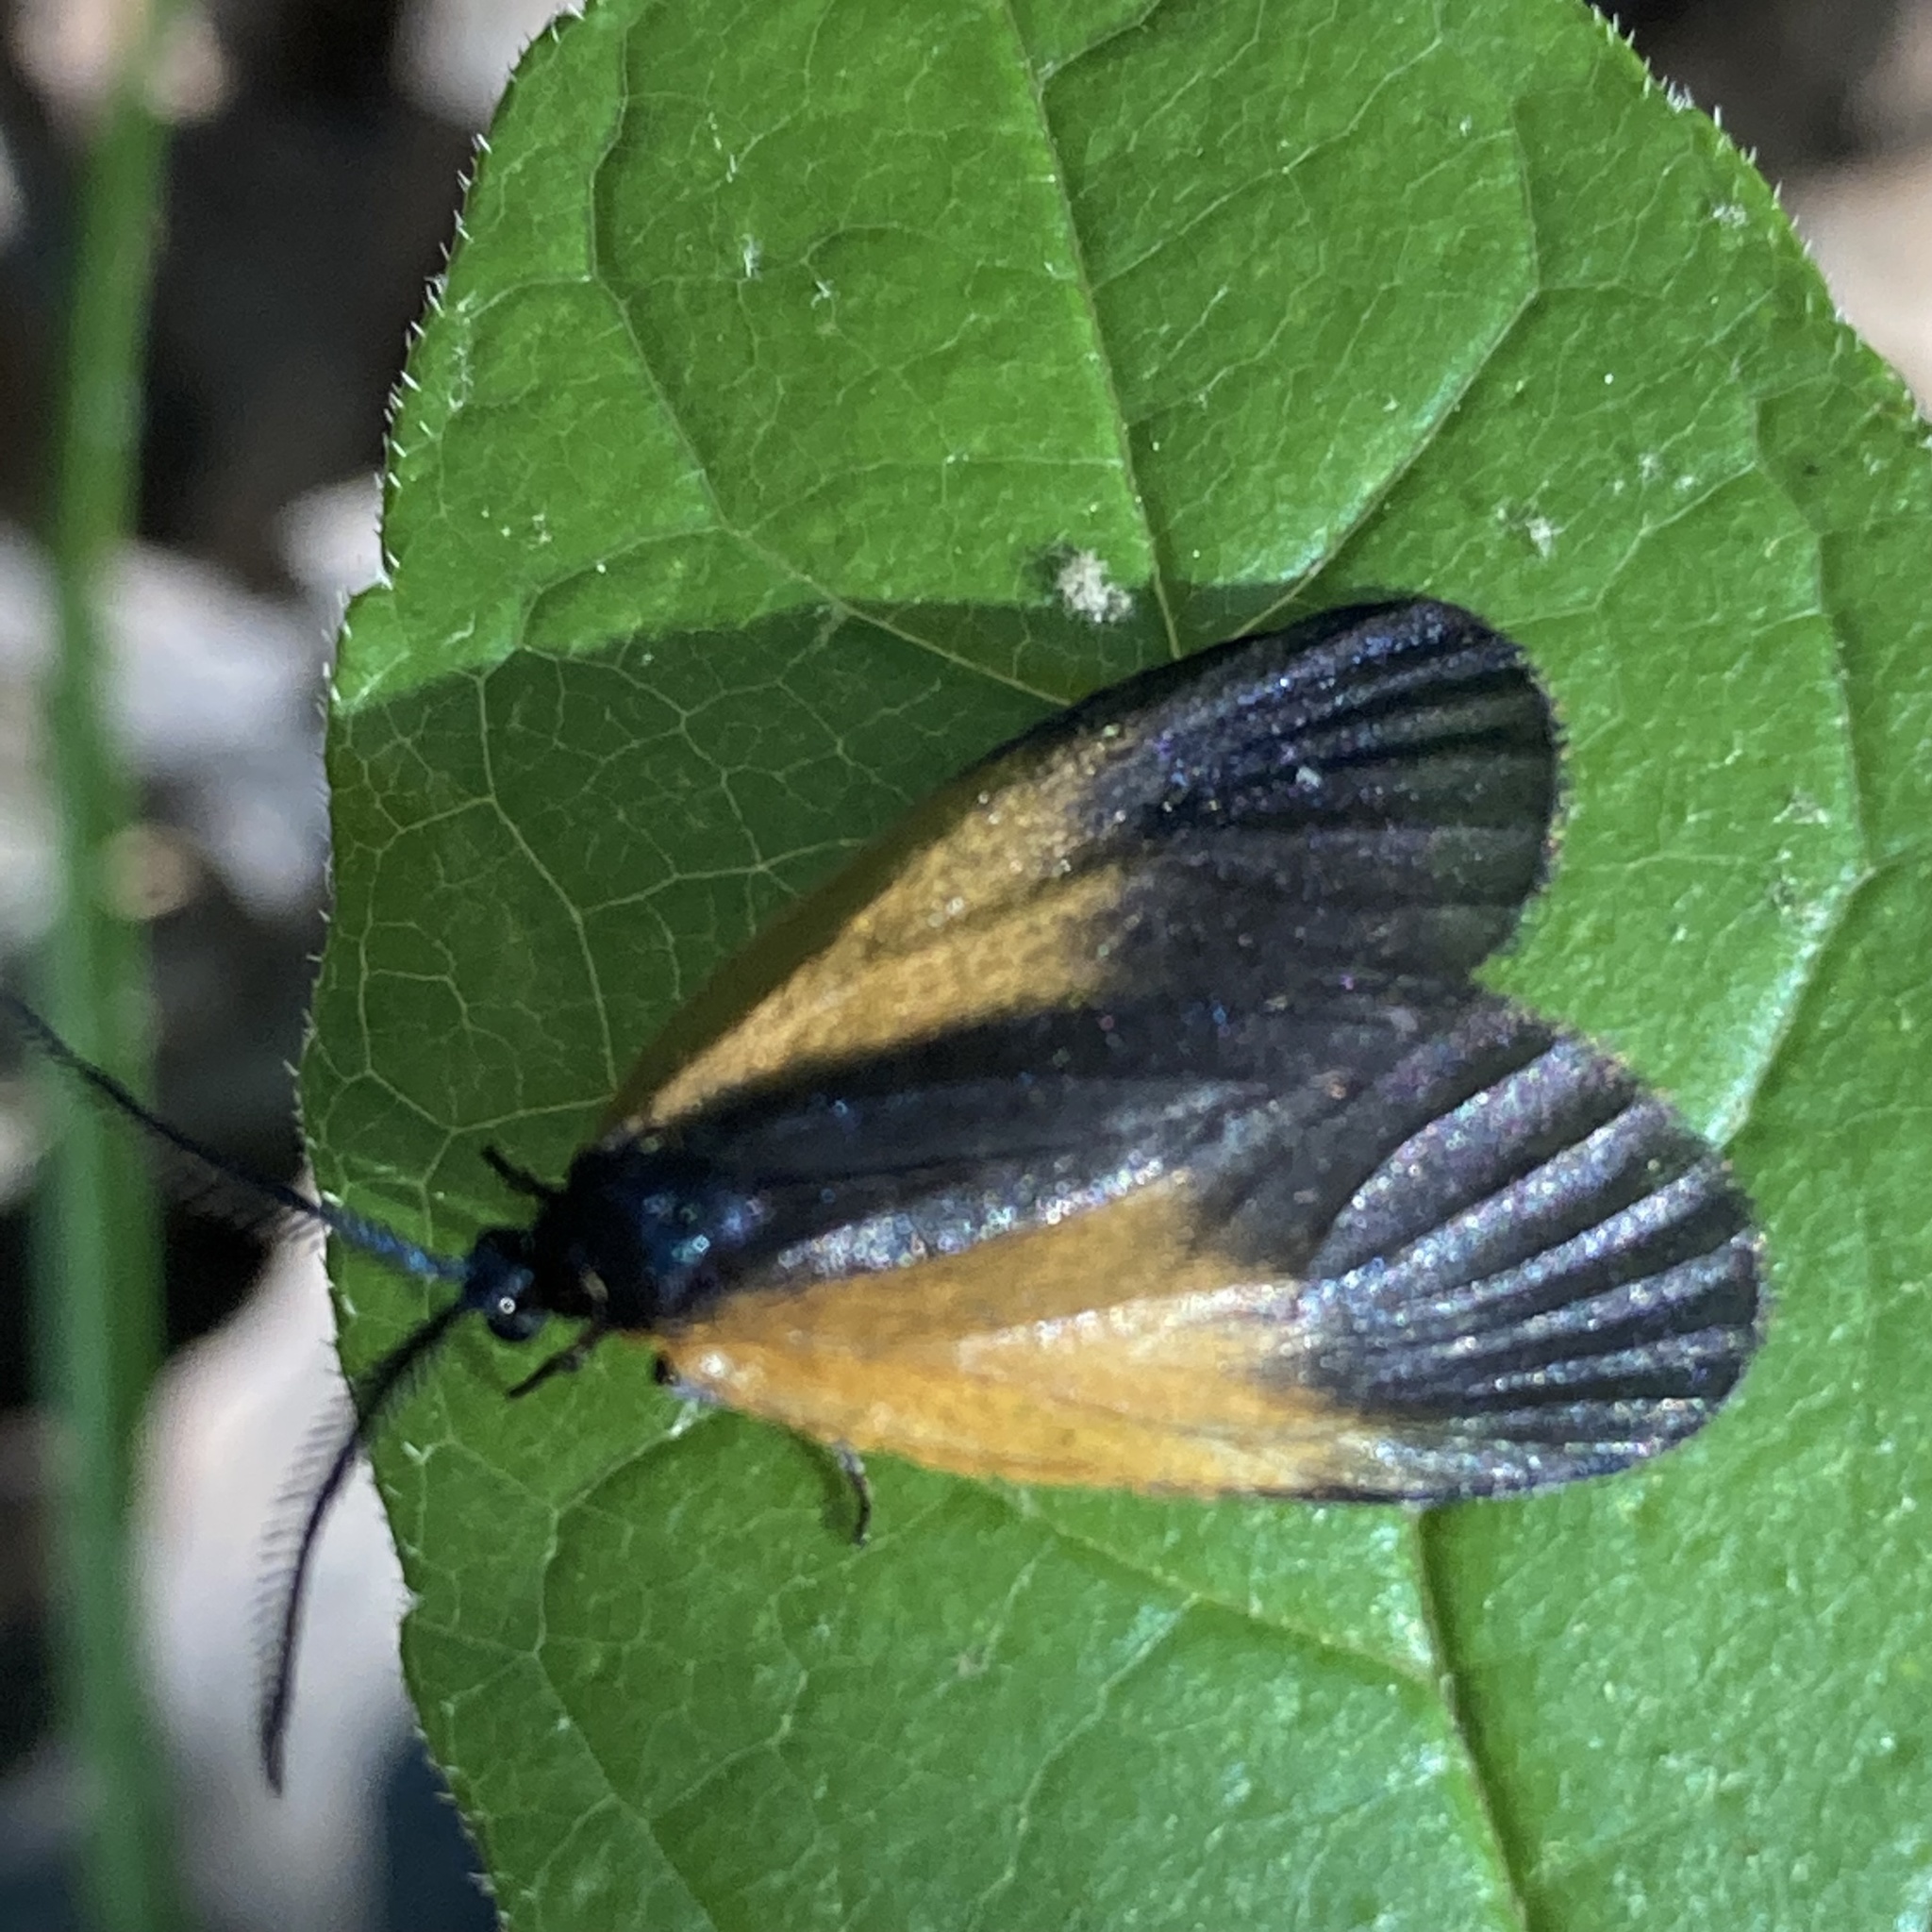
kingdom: Animalia
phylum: Arthropoda
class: Insecta
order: Lepidoptera
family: Zygaenidae
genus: Malthaca
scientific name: Malthaca dimidiata
